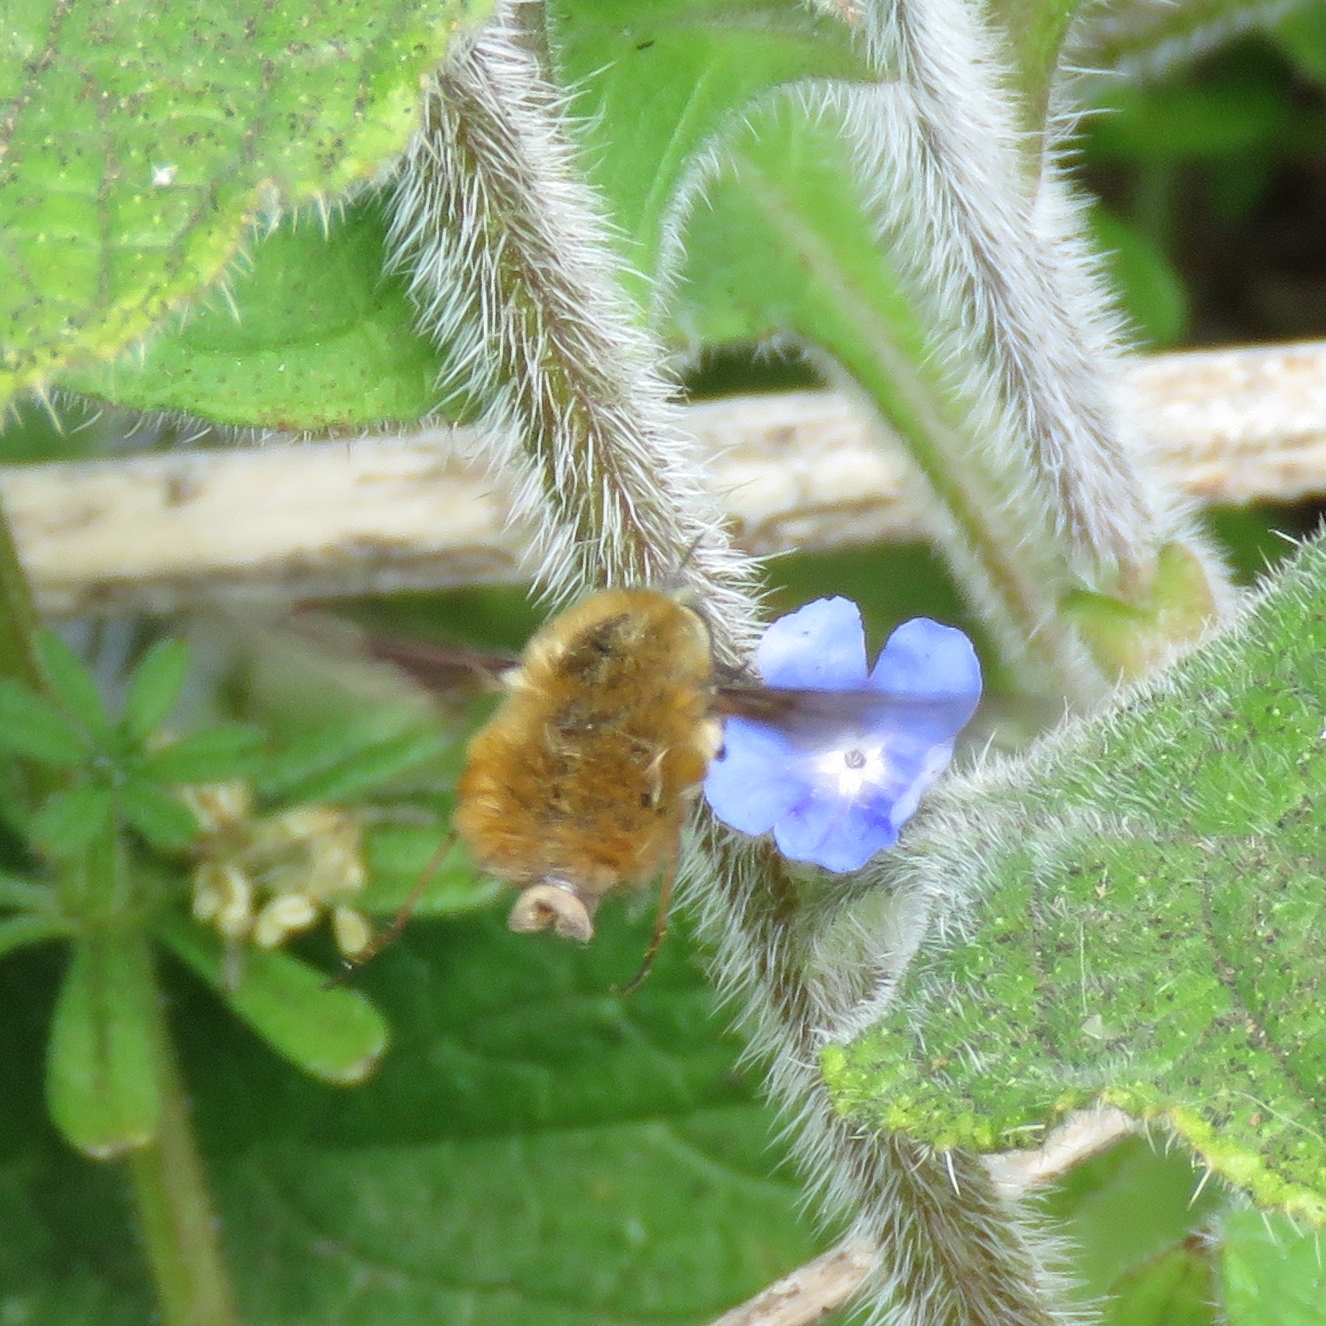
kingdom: Animalia
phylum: Arthropoda
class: Insecta
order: Diptera
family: Bombyliidae
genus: Bombylius
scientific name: Bombylius major
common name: Bee fly
